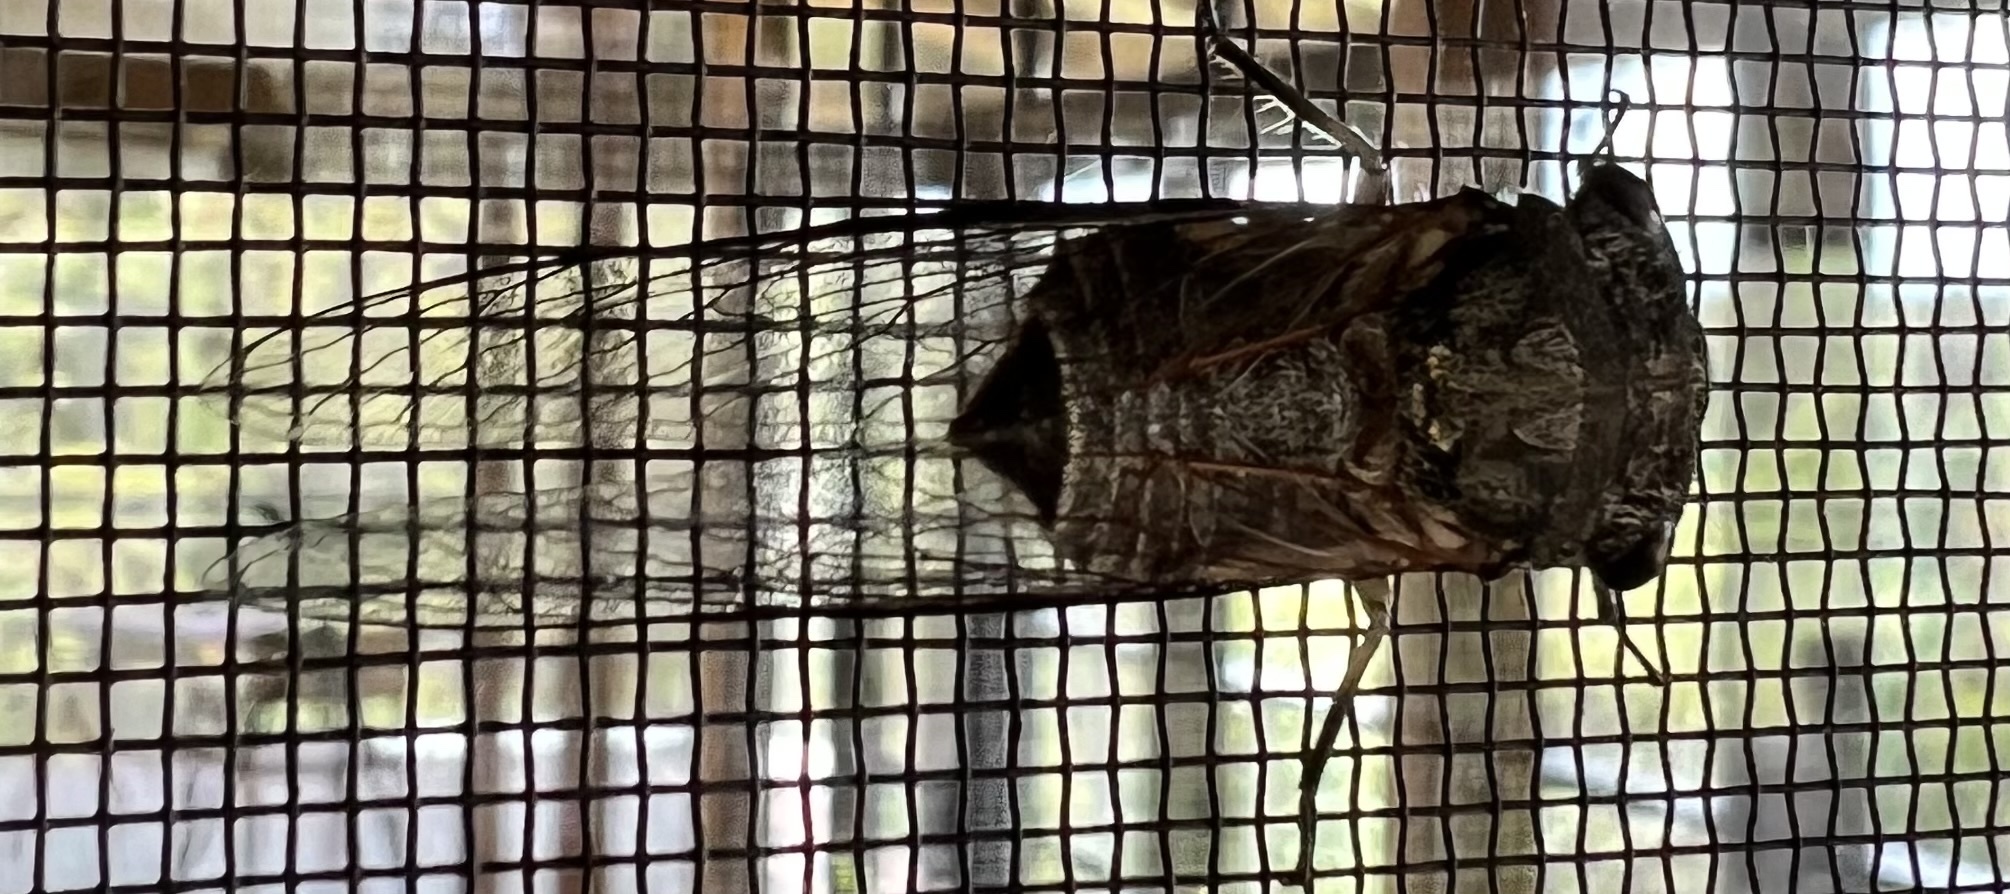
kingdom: Animalia
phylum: Arthropoda
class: Insecta
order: Hemiptera
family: Cicadidae
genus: Psaltoda
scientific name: Psaltoda harrisii
